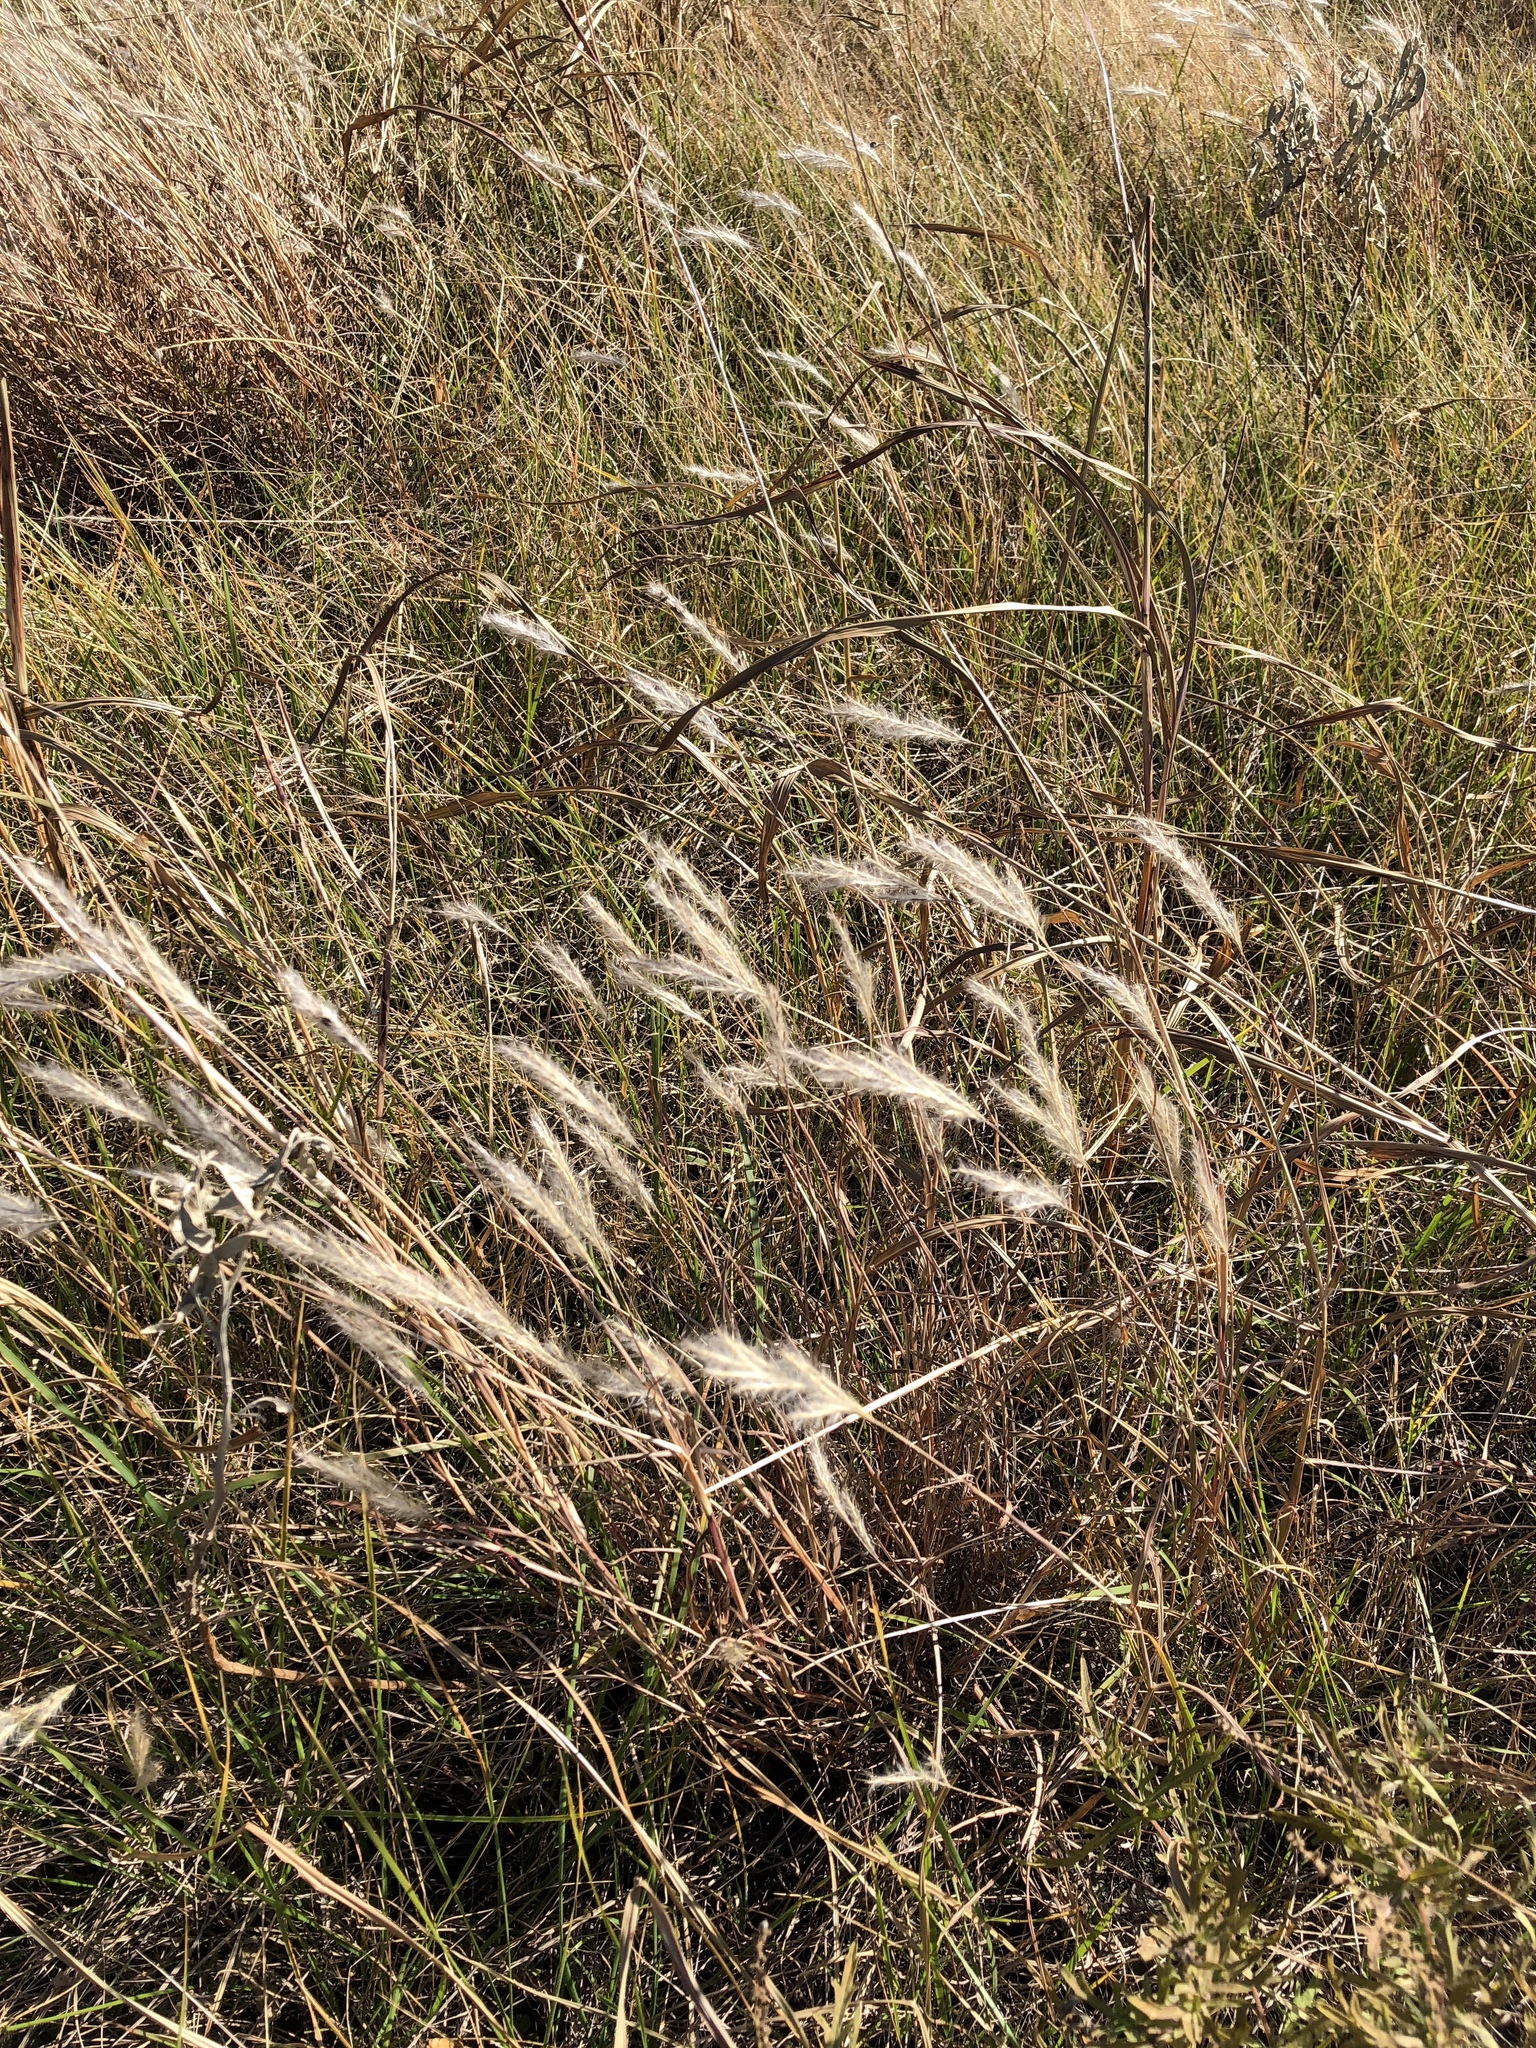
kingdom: Plantae
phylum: Tracheophyta
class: Liliopsida
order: Poales
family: Poaceae
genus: Bothriochloa
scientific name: Bothriochloa torreyana
